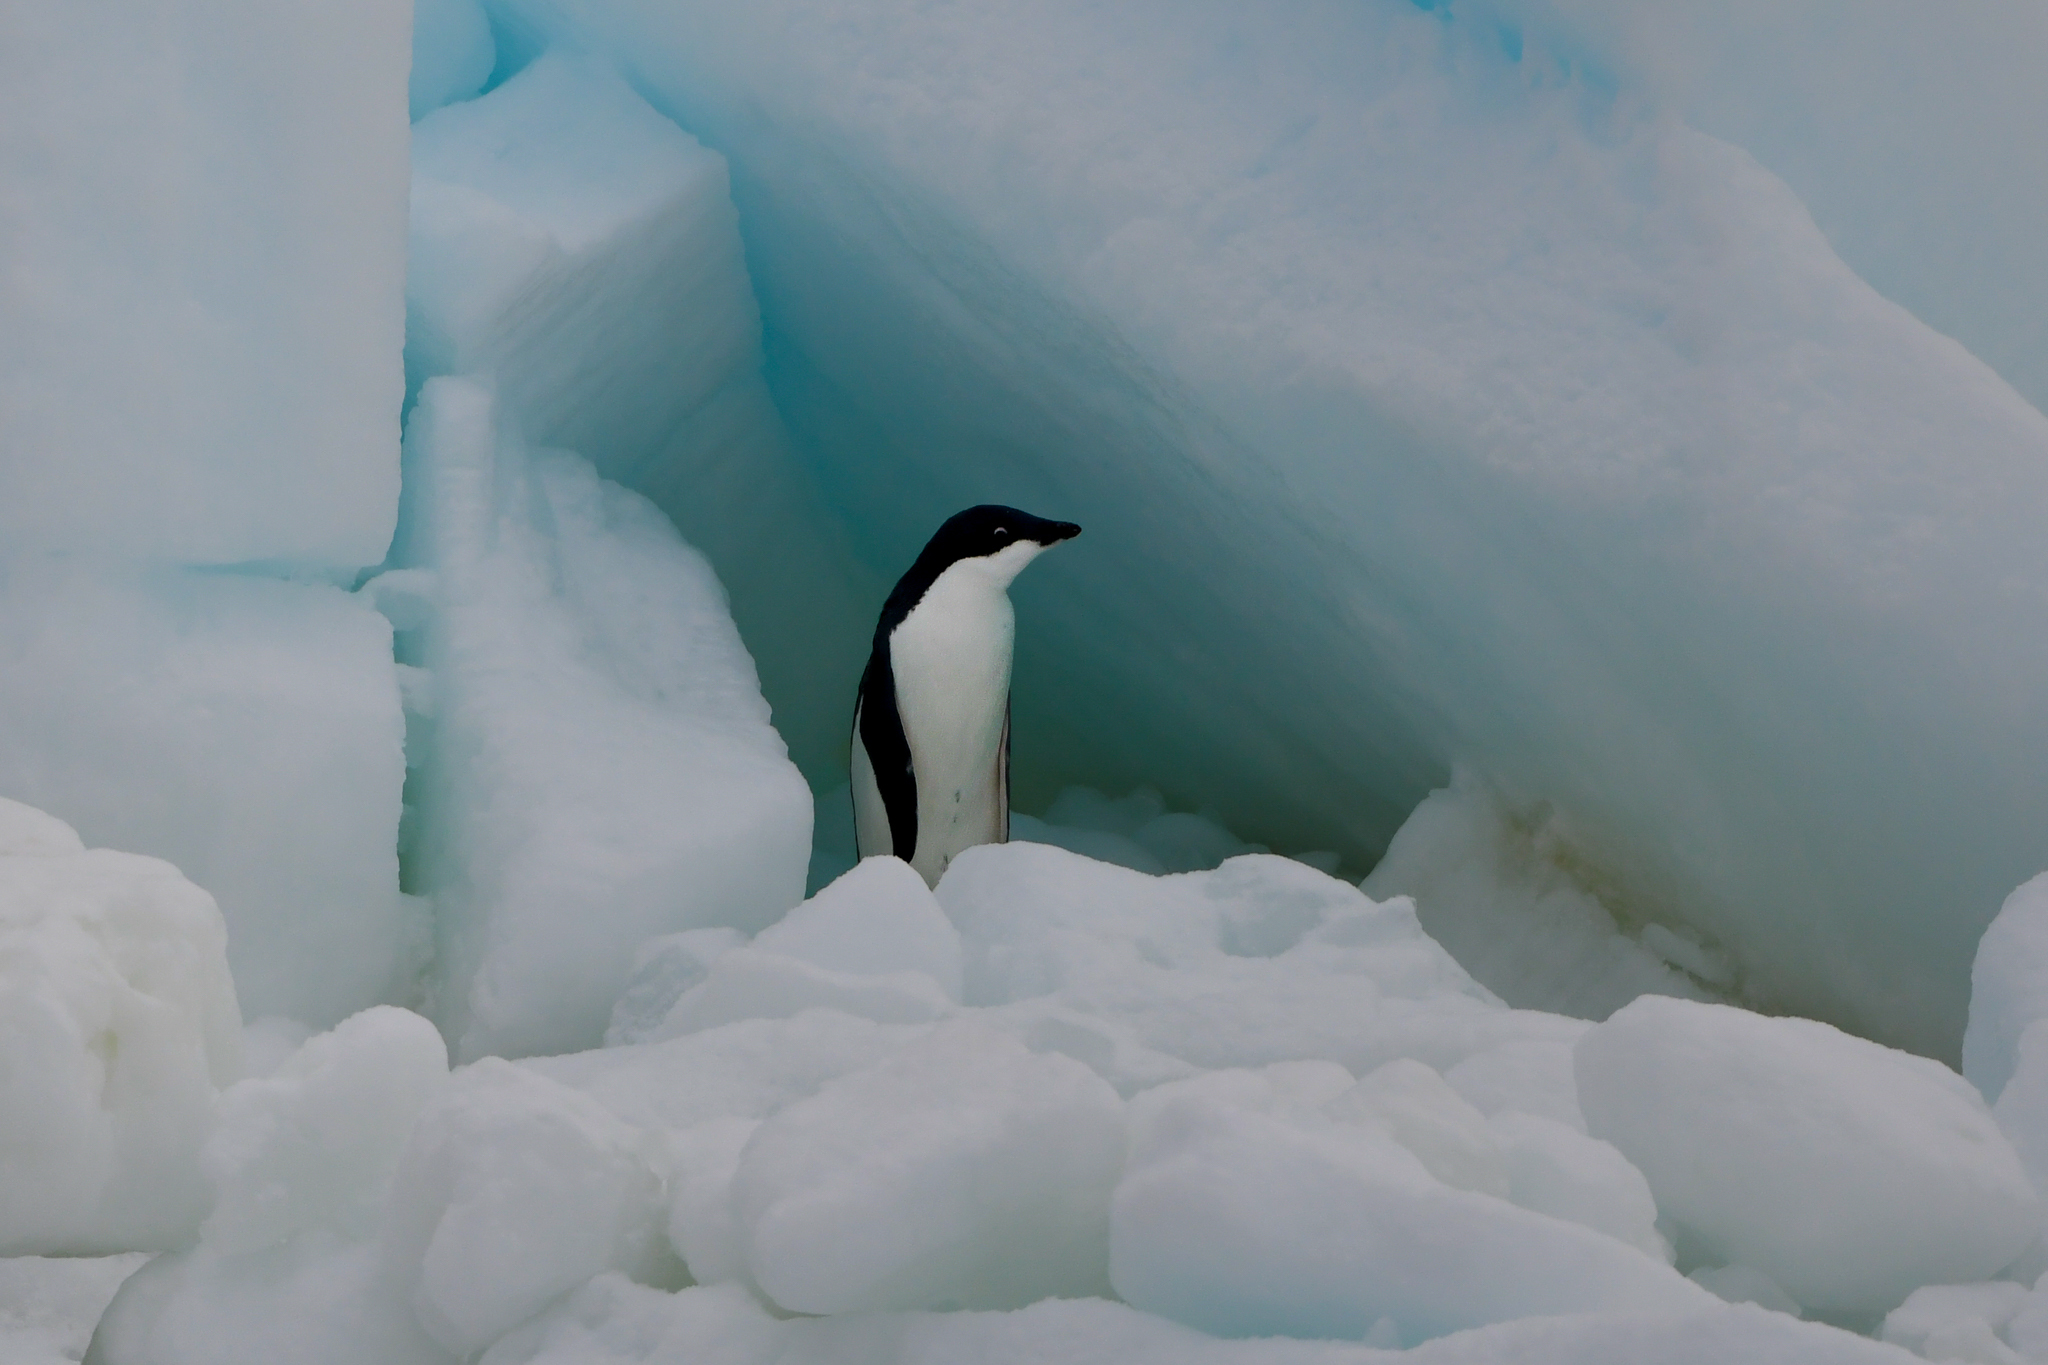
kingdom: Animalia
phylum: Chordata
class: Aves
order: Sphenisciformes
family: Spheniscidae
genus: Pygoscelis
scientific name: Pygoscelis adeliae
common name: Adelie penguin
